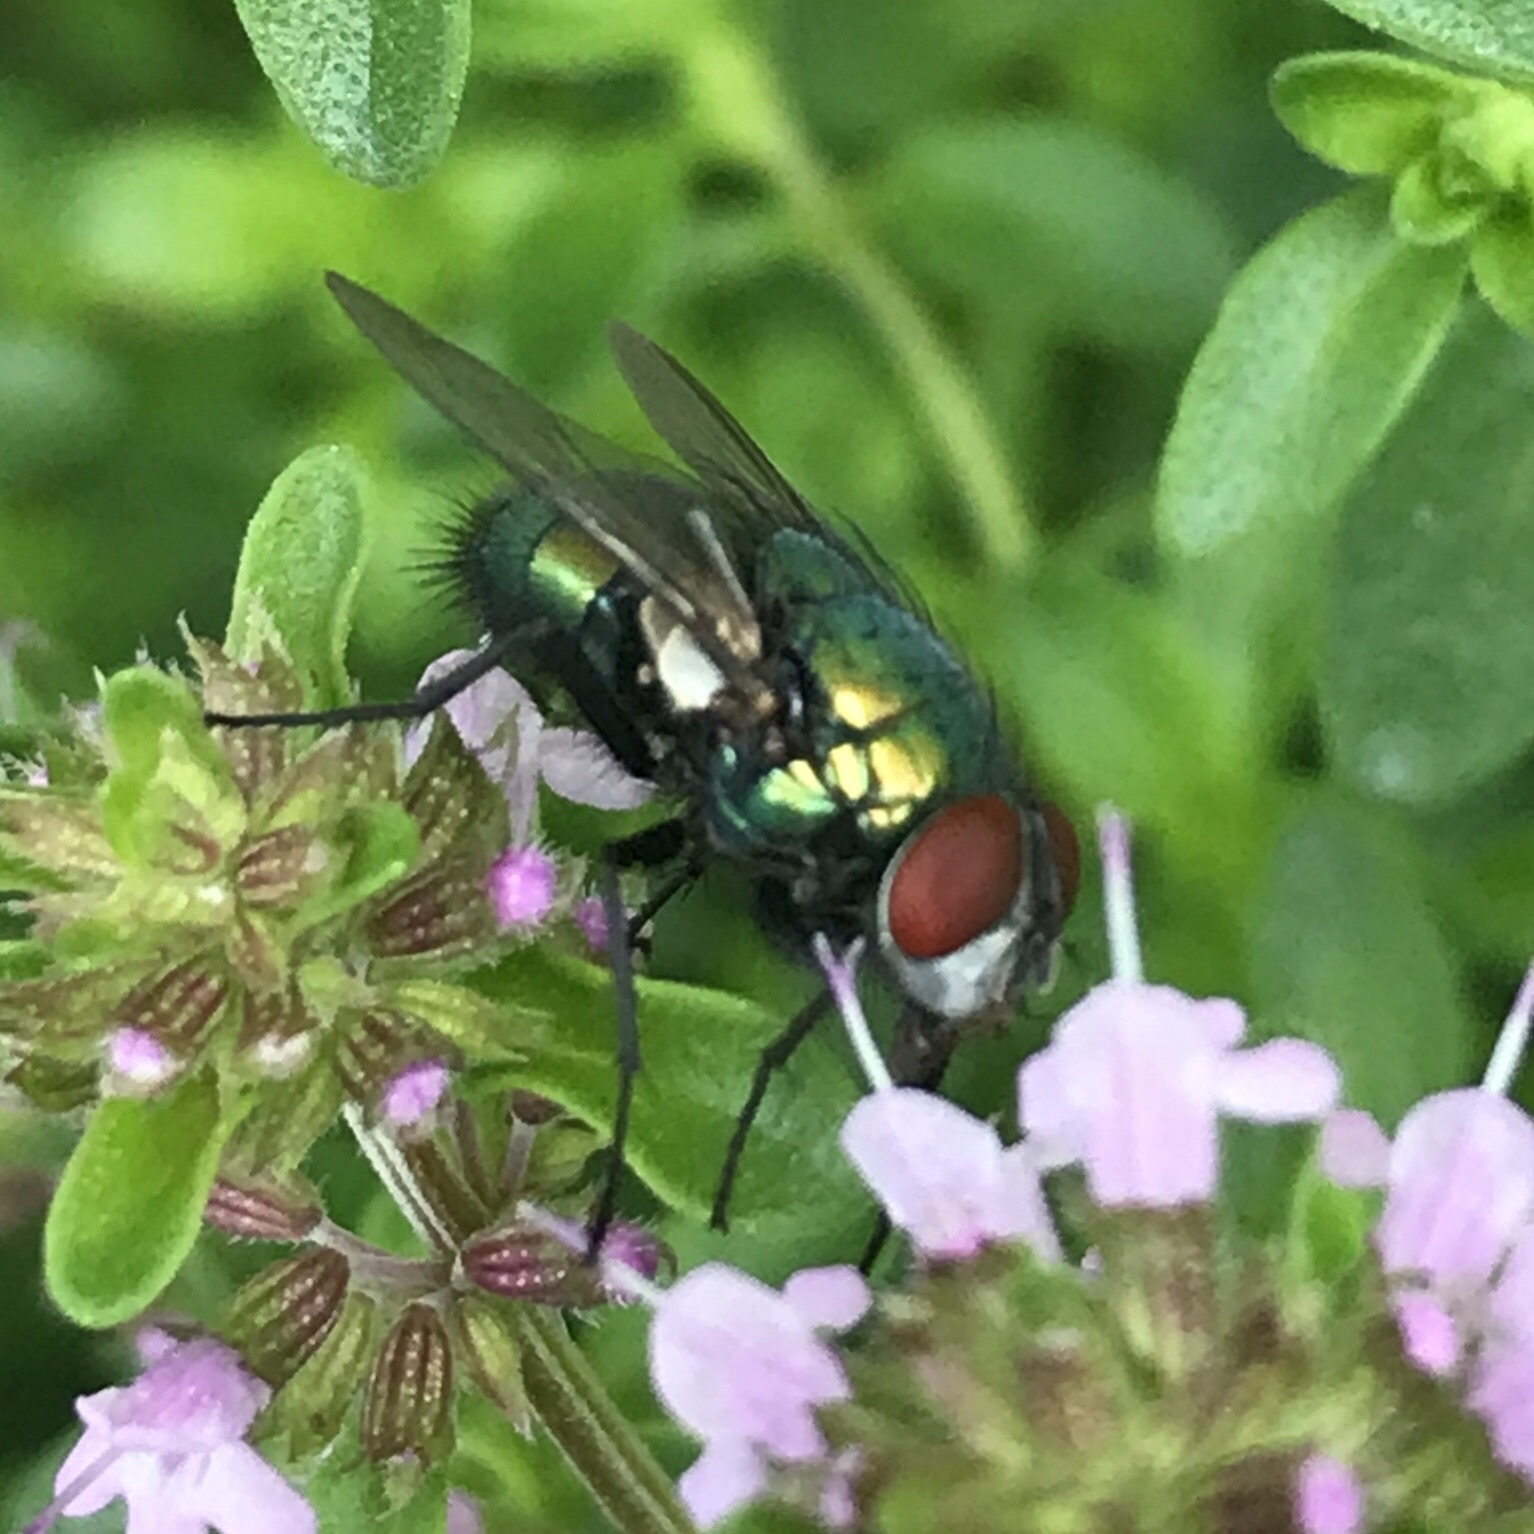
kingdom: Animalia
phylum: Arthropoda
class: Insecta
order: Diptera
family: Calliphoridae
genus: Lucilia
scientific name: Lucilia sericata
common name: Blow fly
